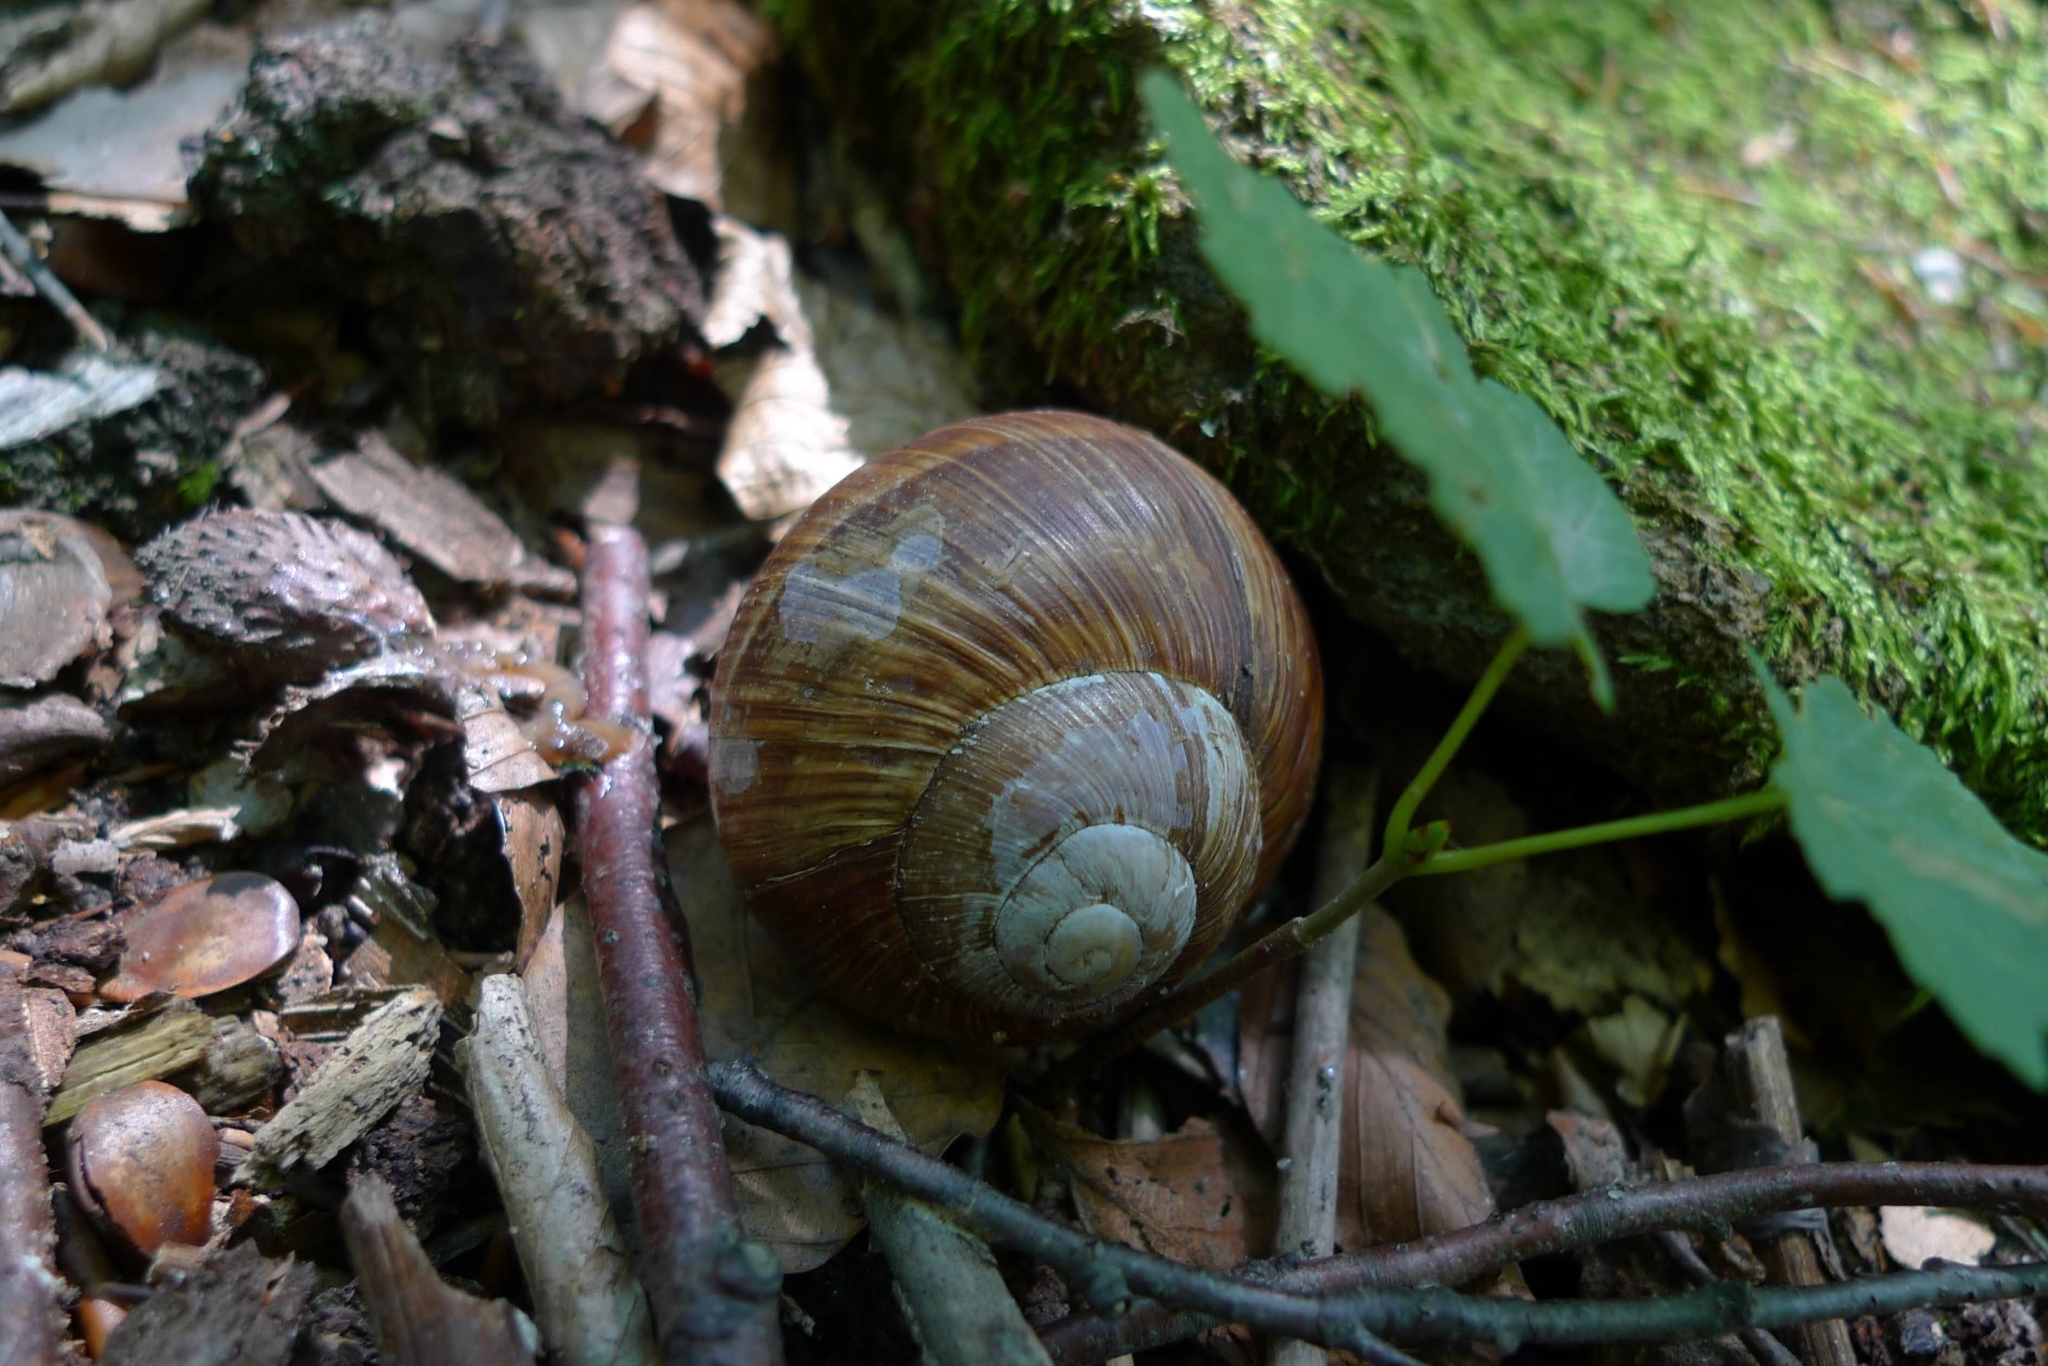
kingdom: Animalia
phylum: Mollusca
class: Gastropoda
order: Stylommatophora
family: Helicidae
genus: Helix
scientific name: Helix pomatia
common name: Roman snail
